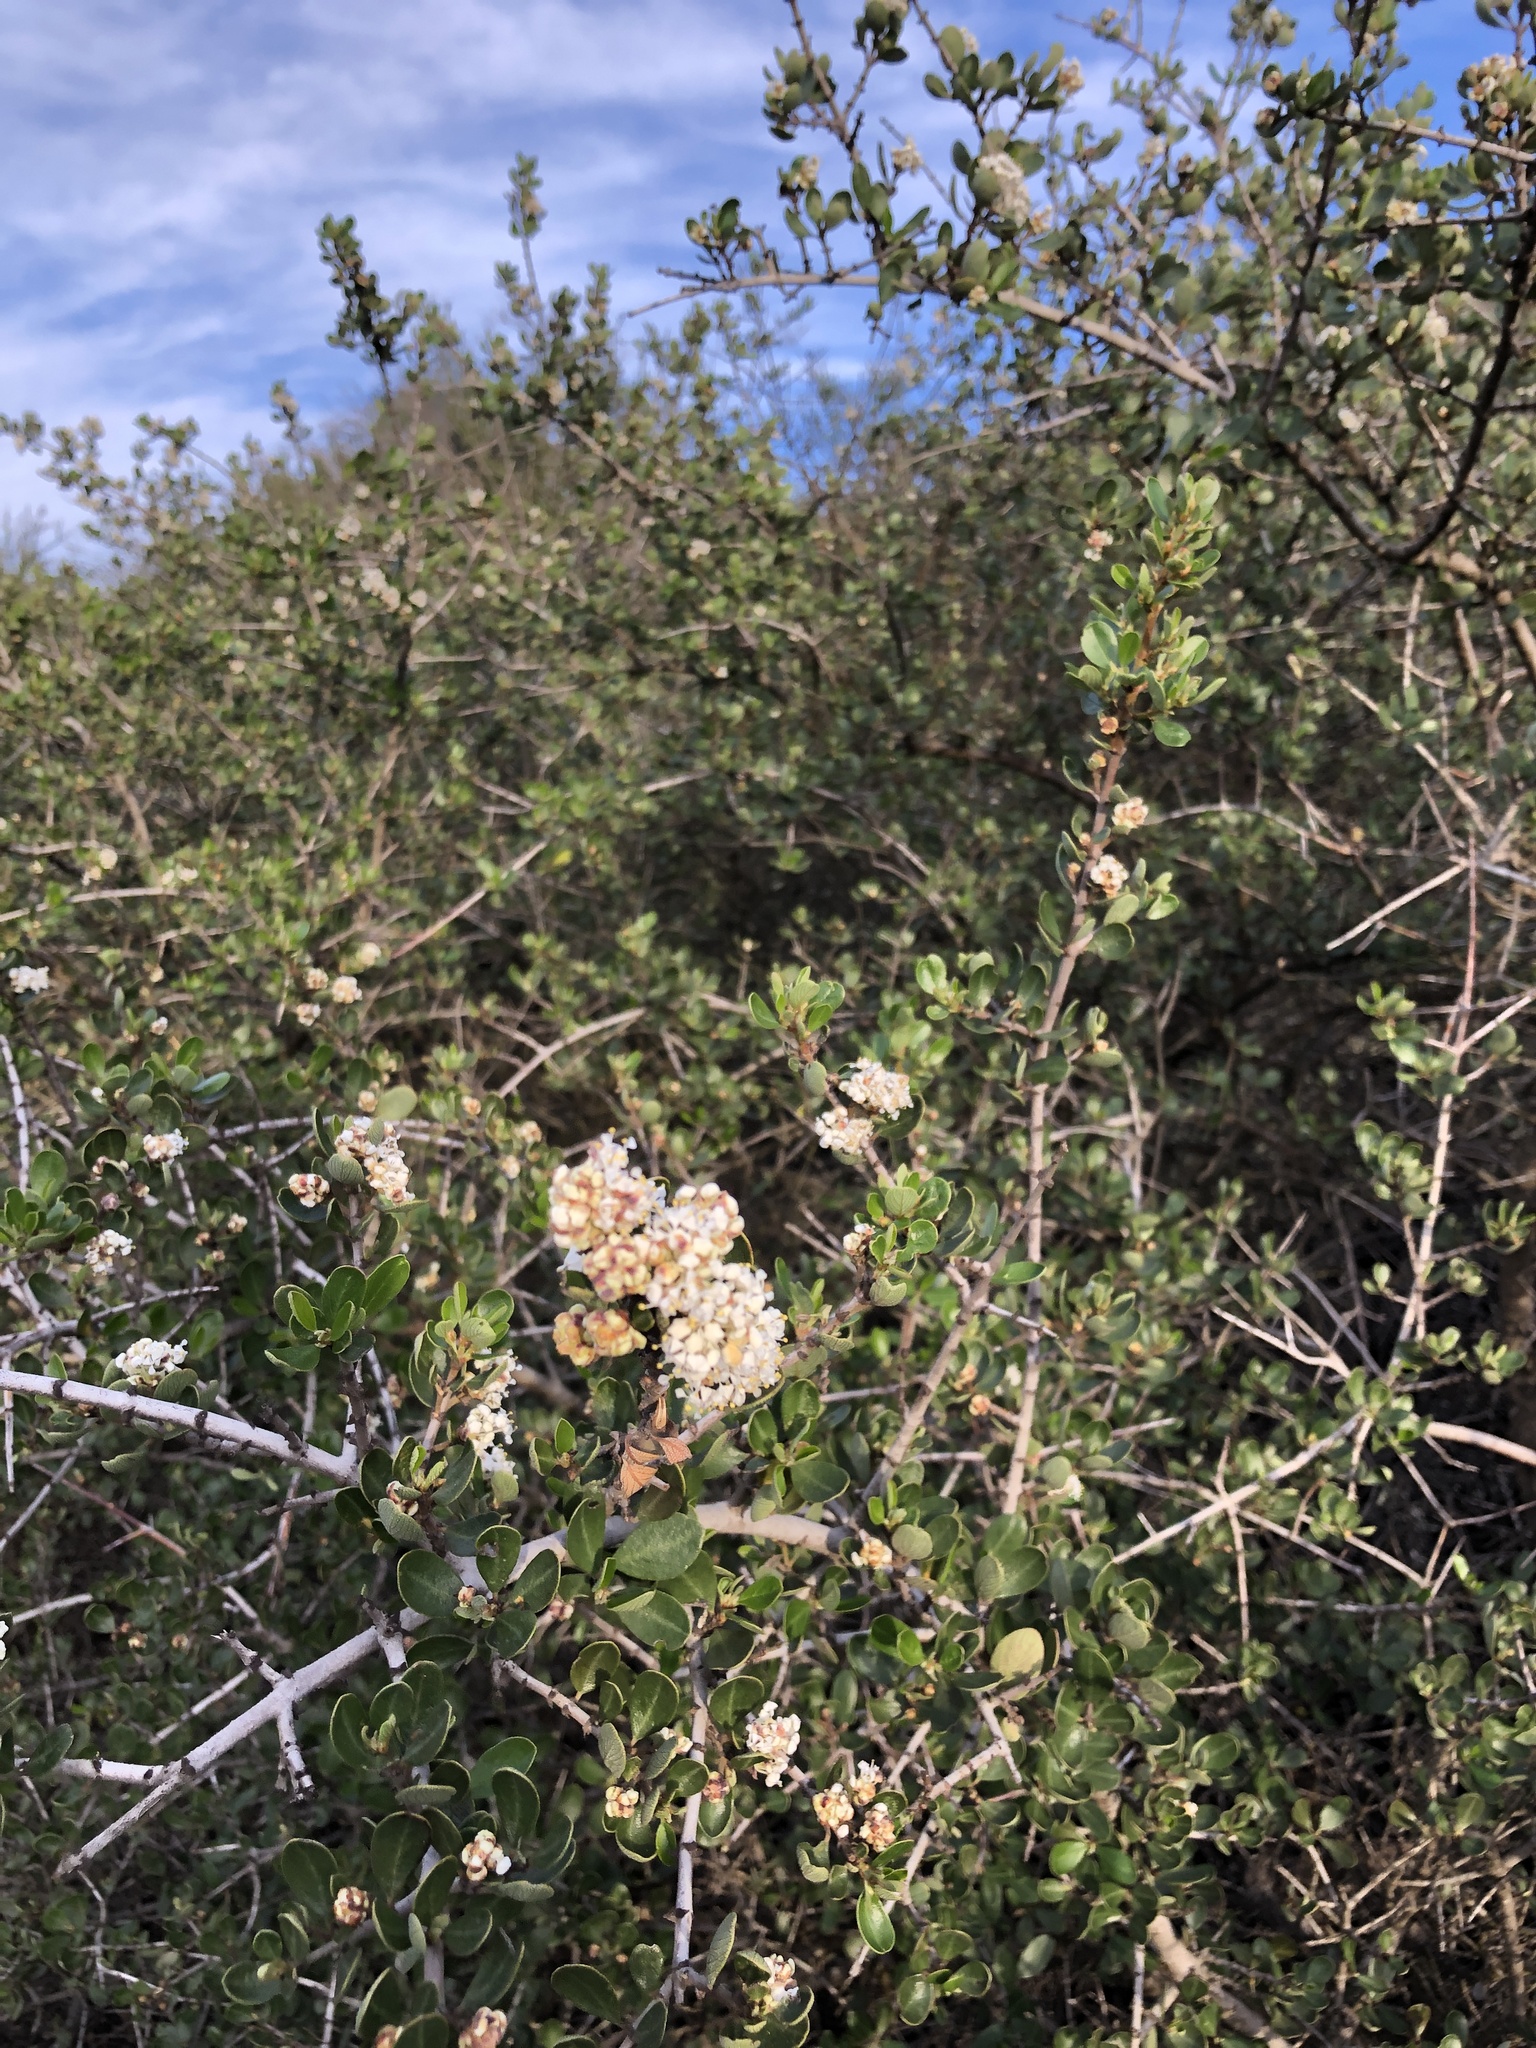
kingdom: Plantae
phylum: Tracheophyta
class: Magnoliopsida
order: Rosales
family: Rhamnaceae
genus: Ceanothus
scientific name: Ceanothus cuneatus
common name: Cuneate ceanothus
